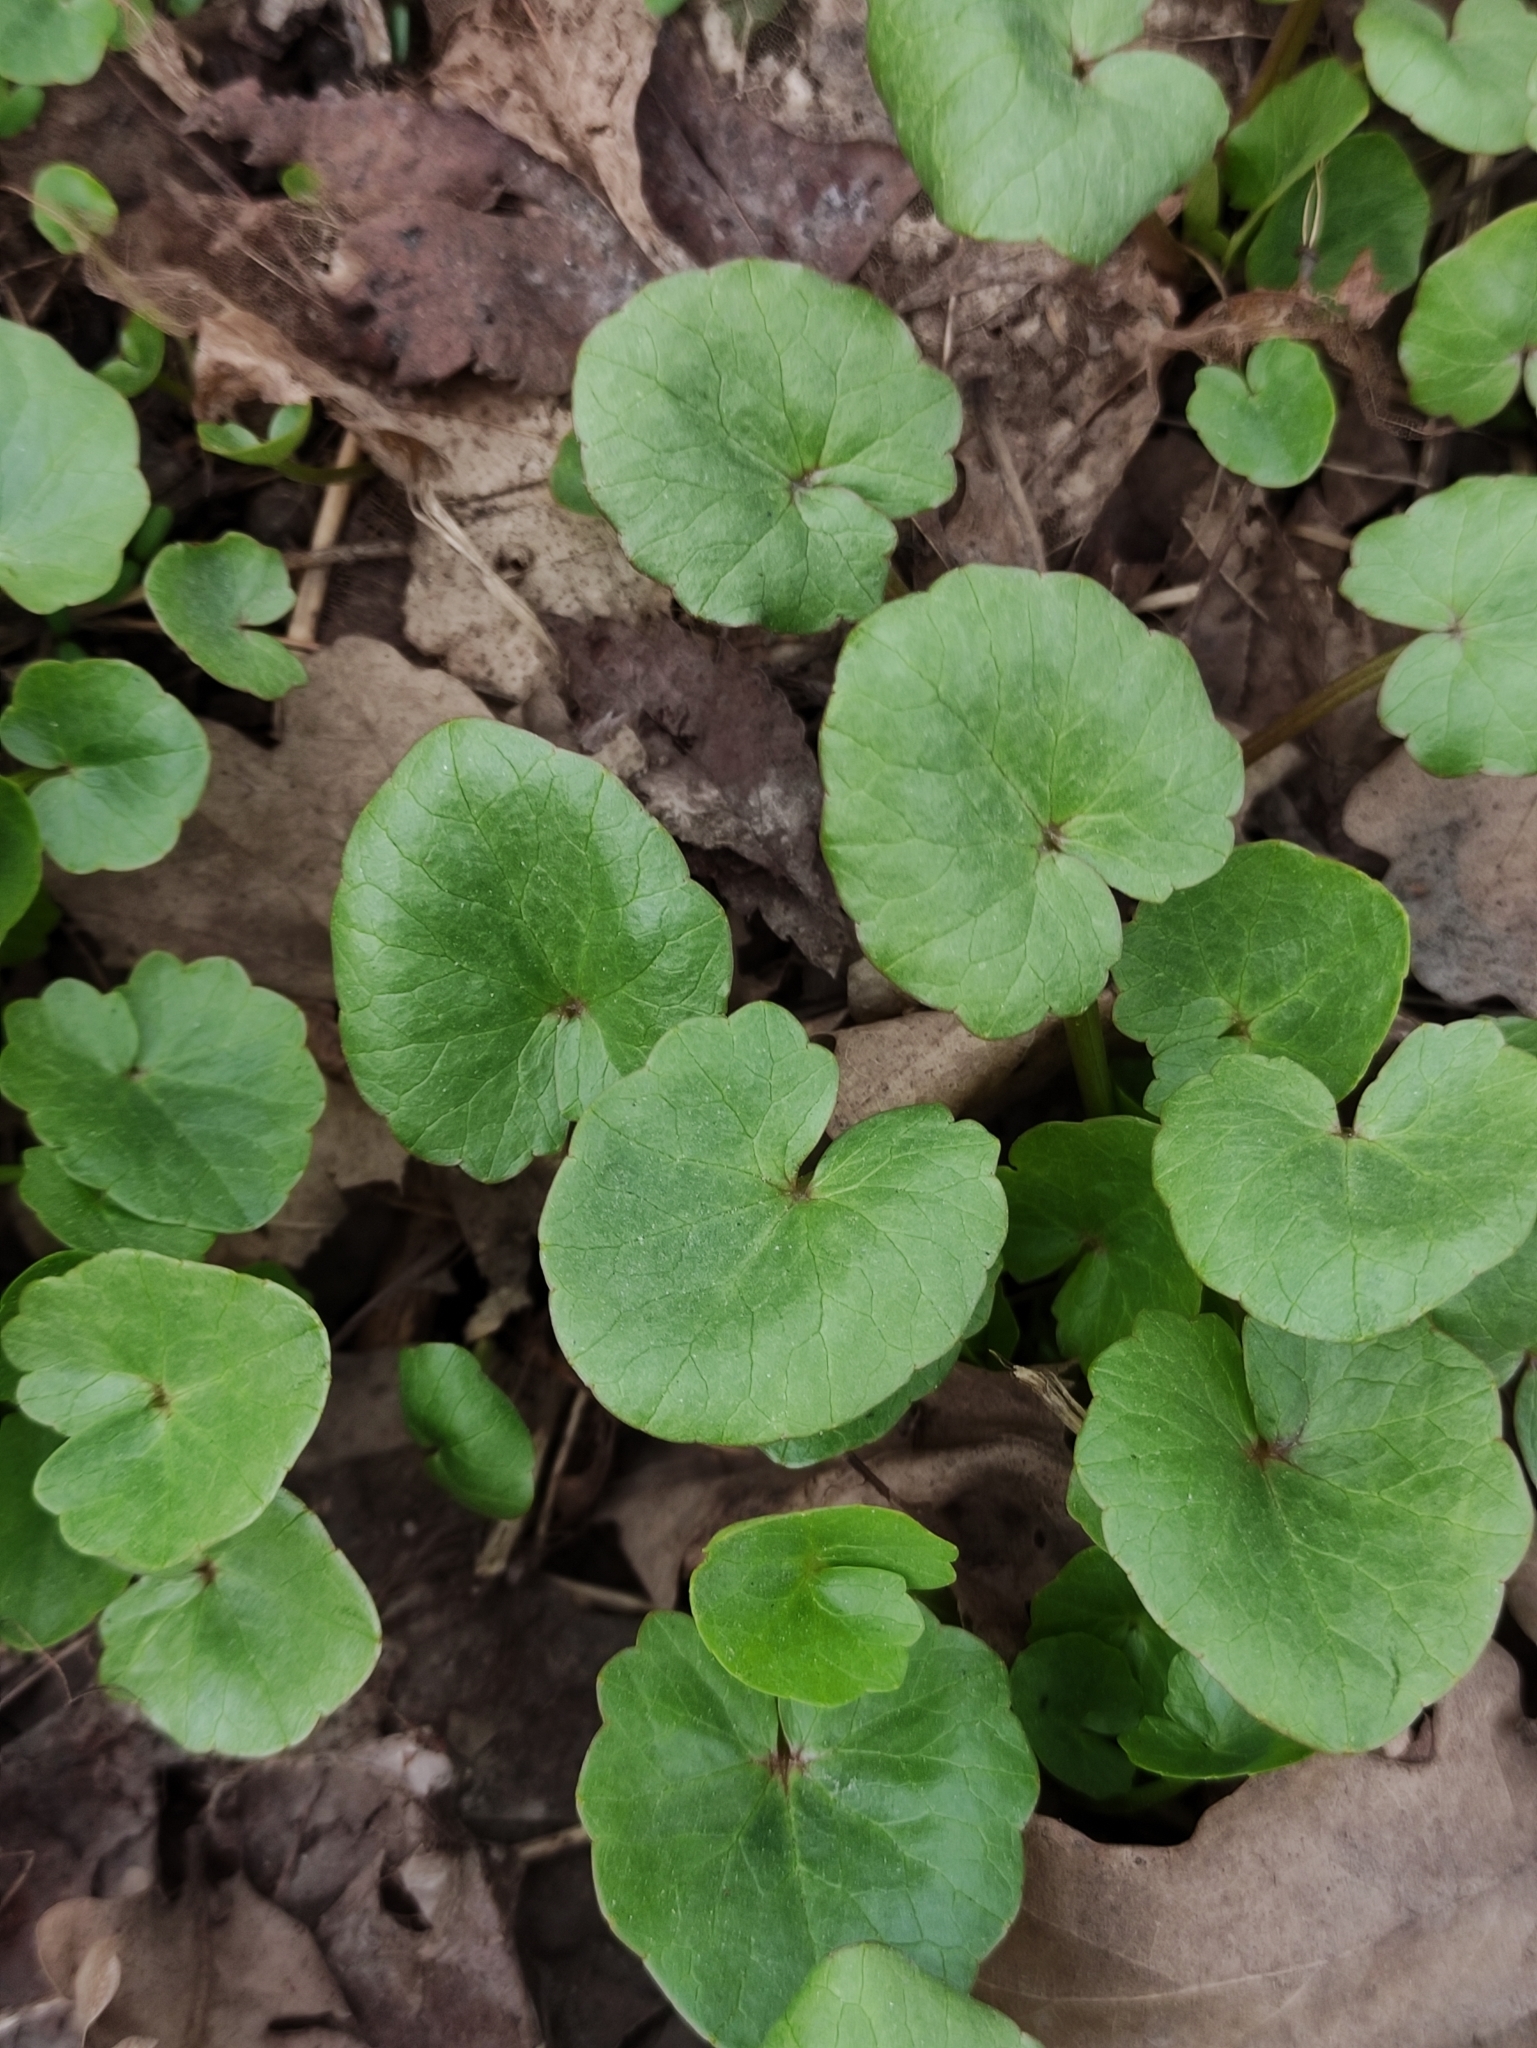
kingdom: Plantae
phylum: Tracheophyta
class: Magnoliopsida
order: Ranunculales
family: Ranunculaceae
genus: Ficaria
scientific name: Ficaria verna
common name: Lesser celandine
